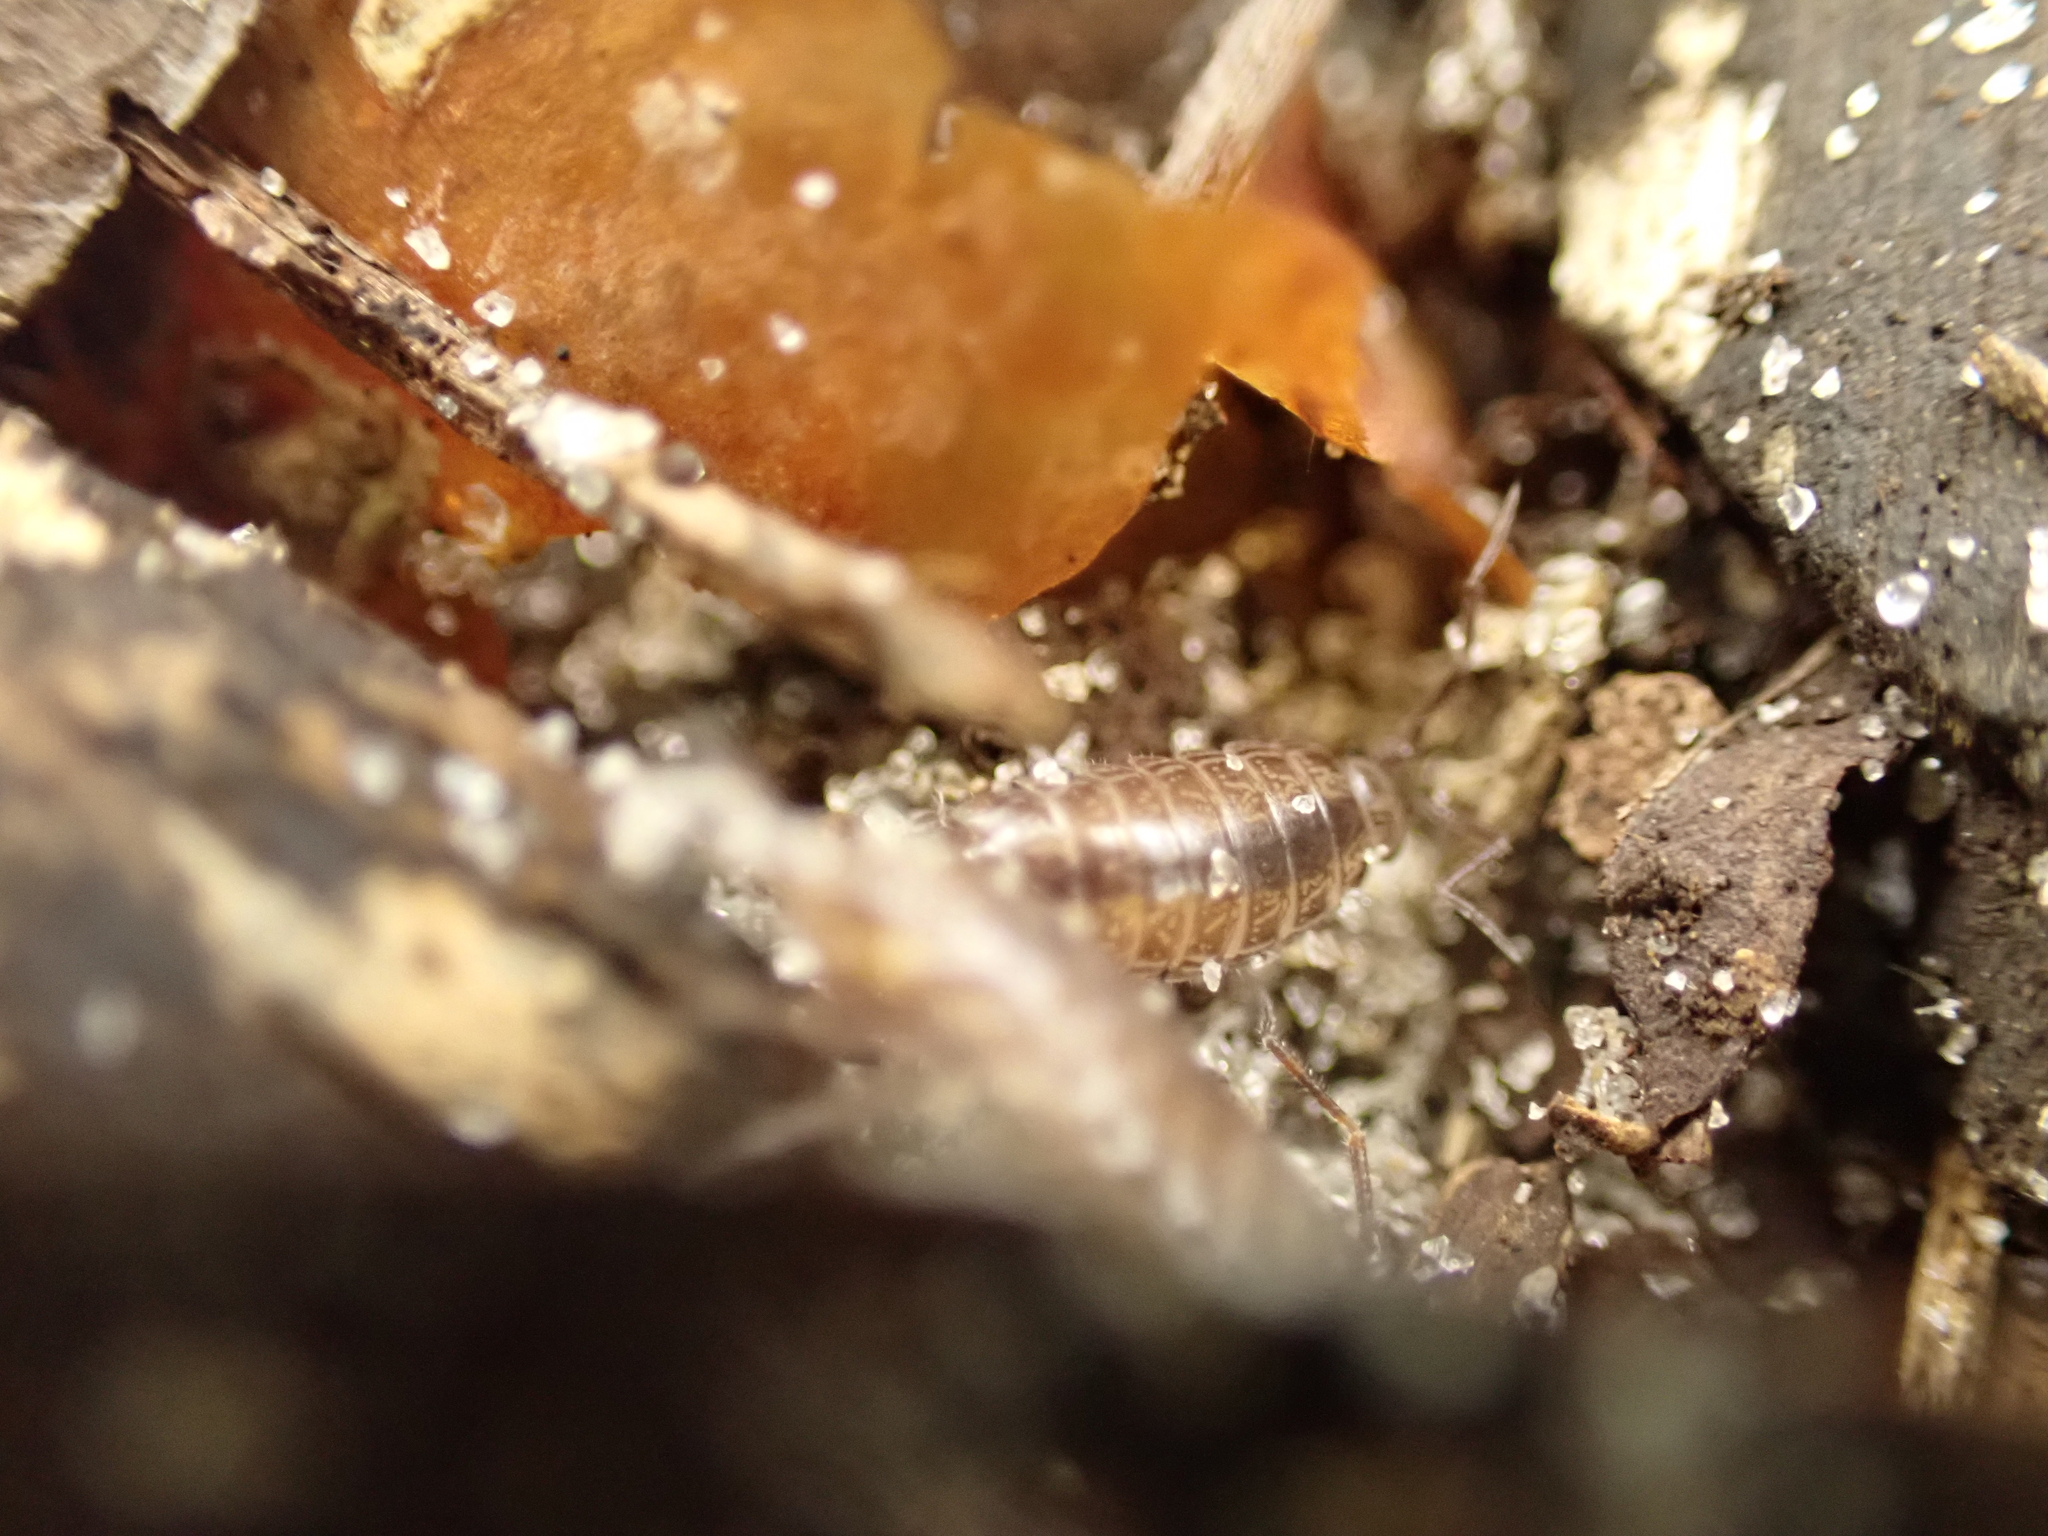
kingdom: Animalia
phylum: Arthropoda
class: Malacostraca
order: Isopoda
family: Philosciidae
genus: Atlantoscia
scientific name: Atlantoscia floridana
